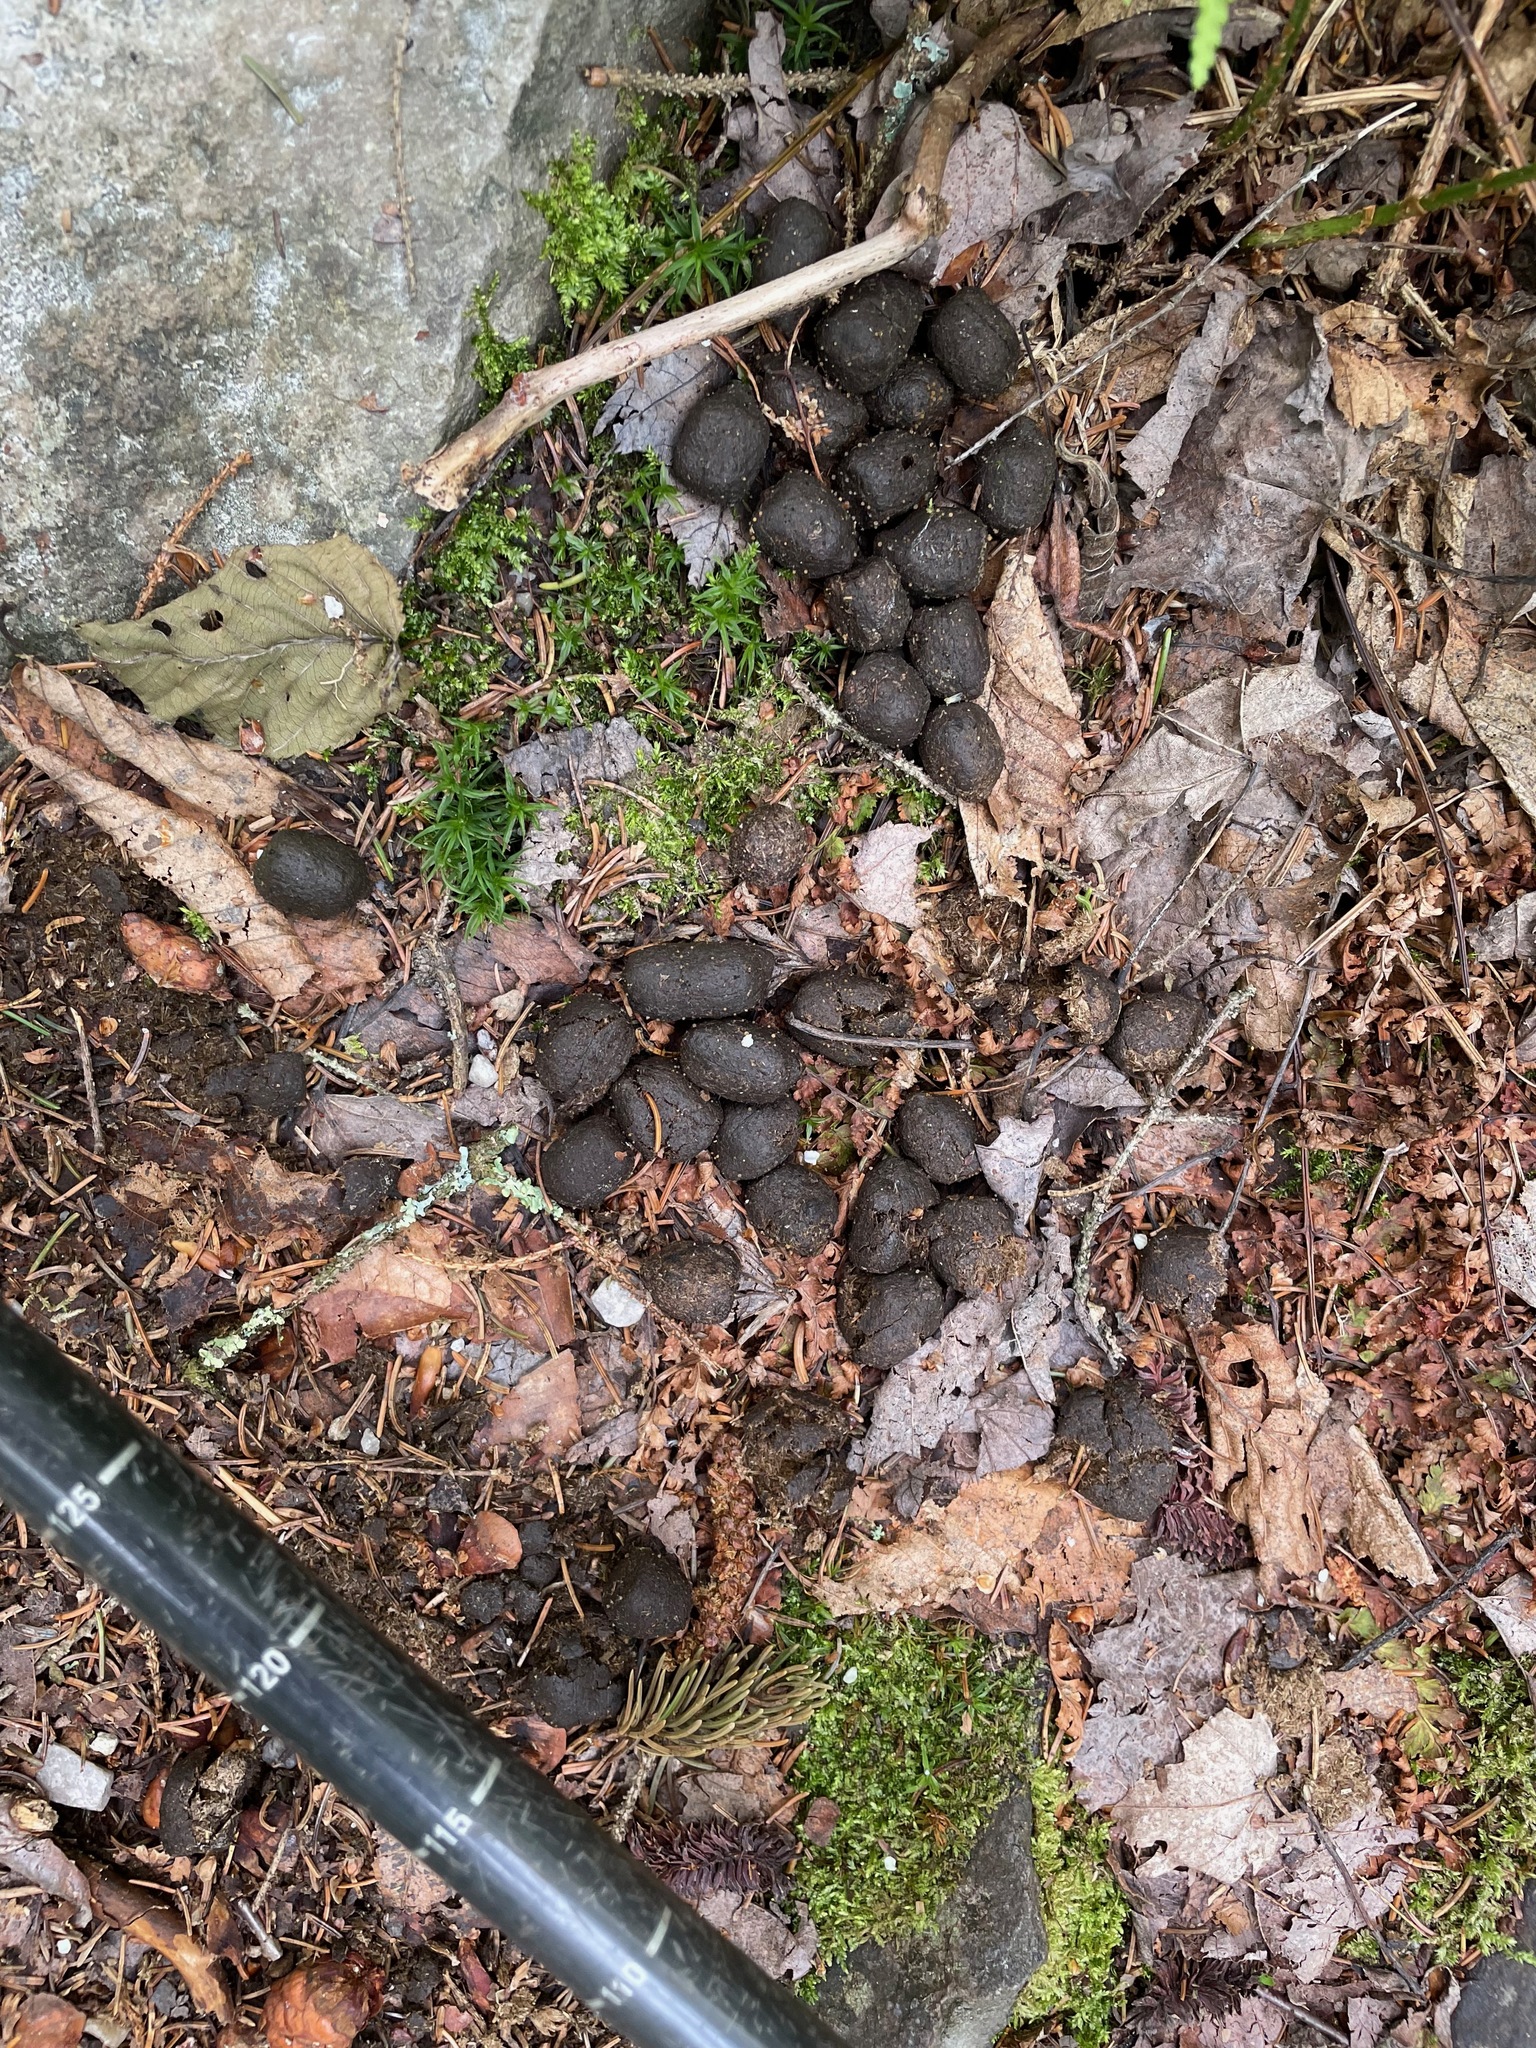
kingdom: Animalia
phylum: Chordata
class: Mammalia
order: Artiodactyla
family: Cervidae
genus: Odocoileus
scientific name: Odocoileus virginianus
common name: White-tailed deer
